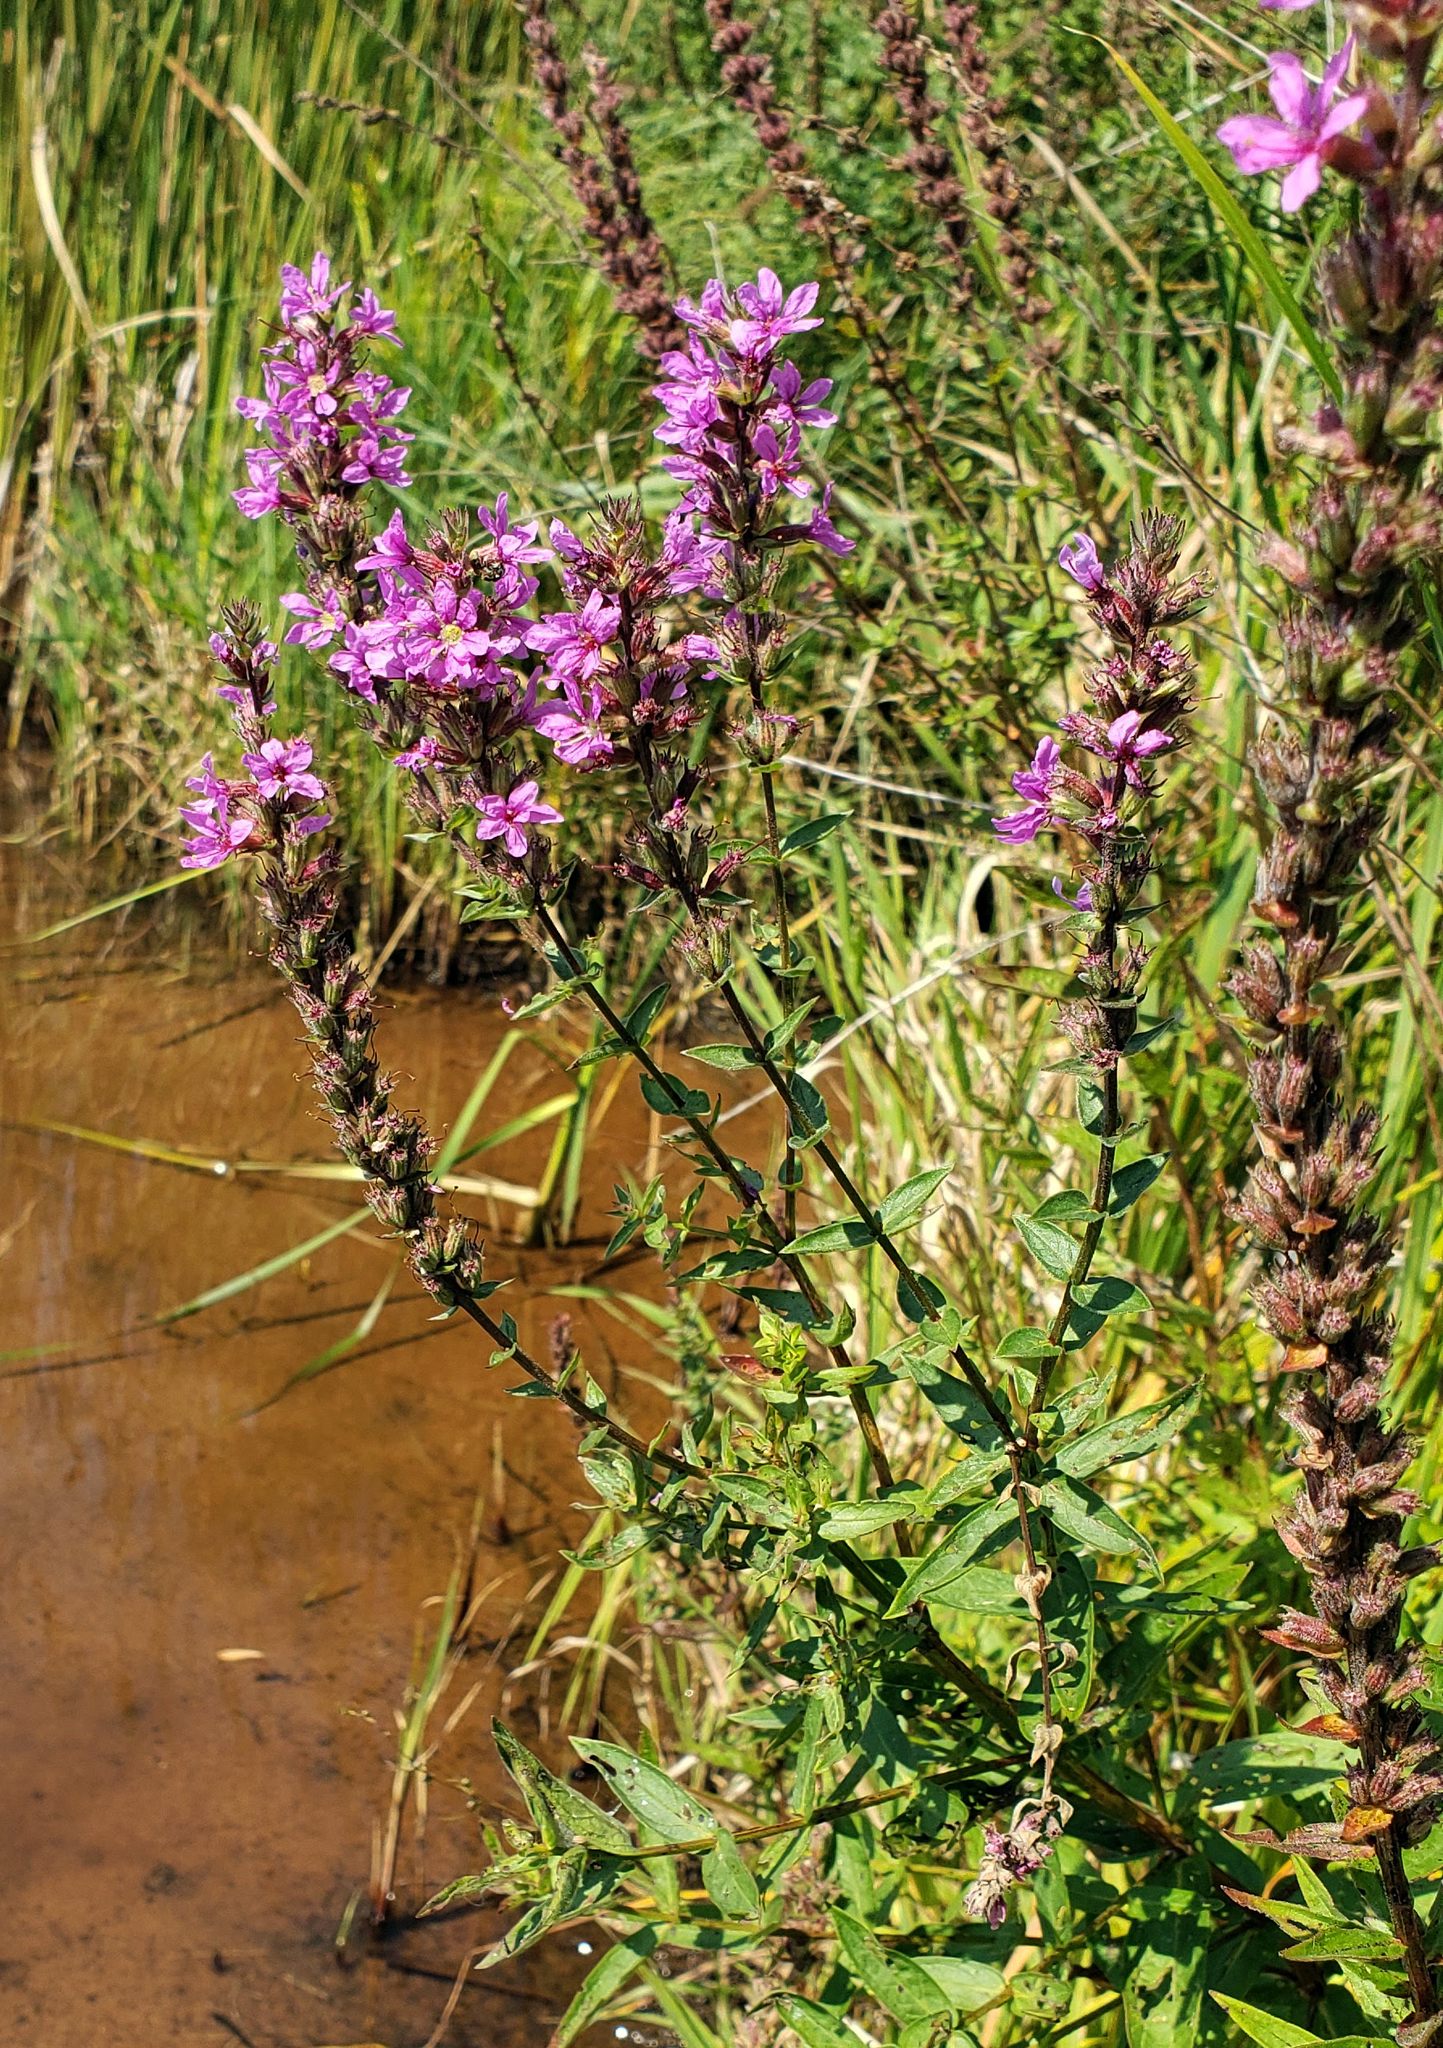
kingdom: Plantae
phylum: Tracheophyta
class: Magnoliopsida
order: Myrtales
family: Lythraceae
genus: Lythrum
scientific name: Lythrum salicaria
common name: Purple loosestrife
